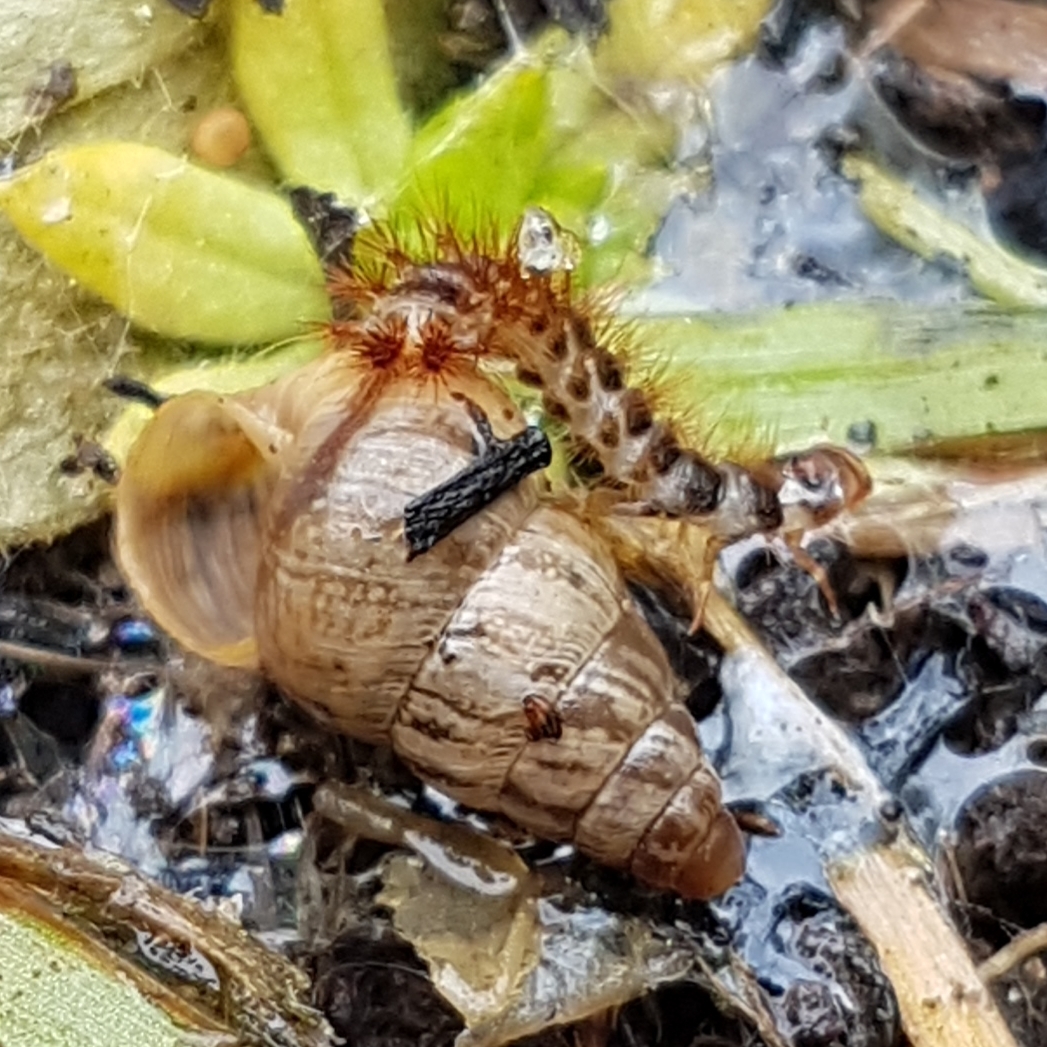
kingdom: Animalia
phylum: Mollusca
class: Gastropoda
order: Stylommatophora
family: Geomitridae
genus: Cochlicella
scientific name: Cochlicella barbara
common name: Potbellied helicellid
